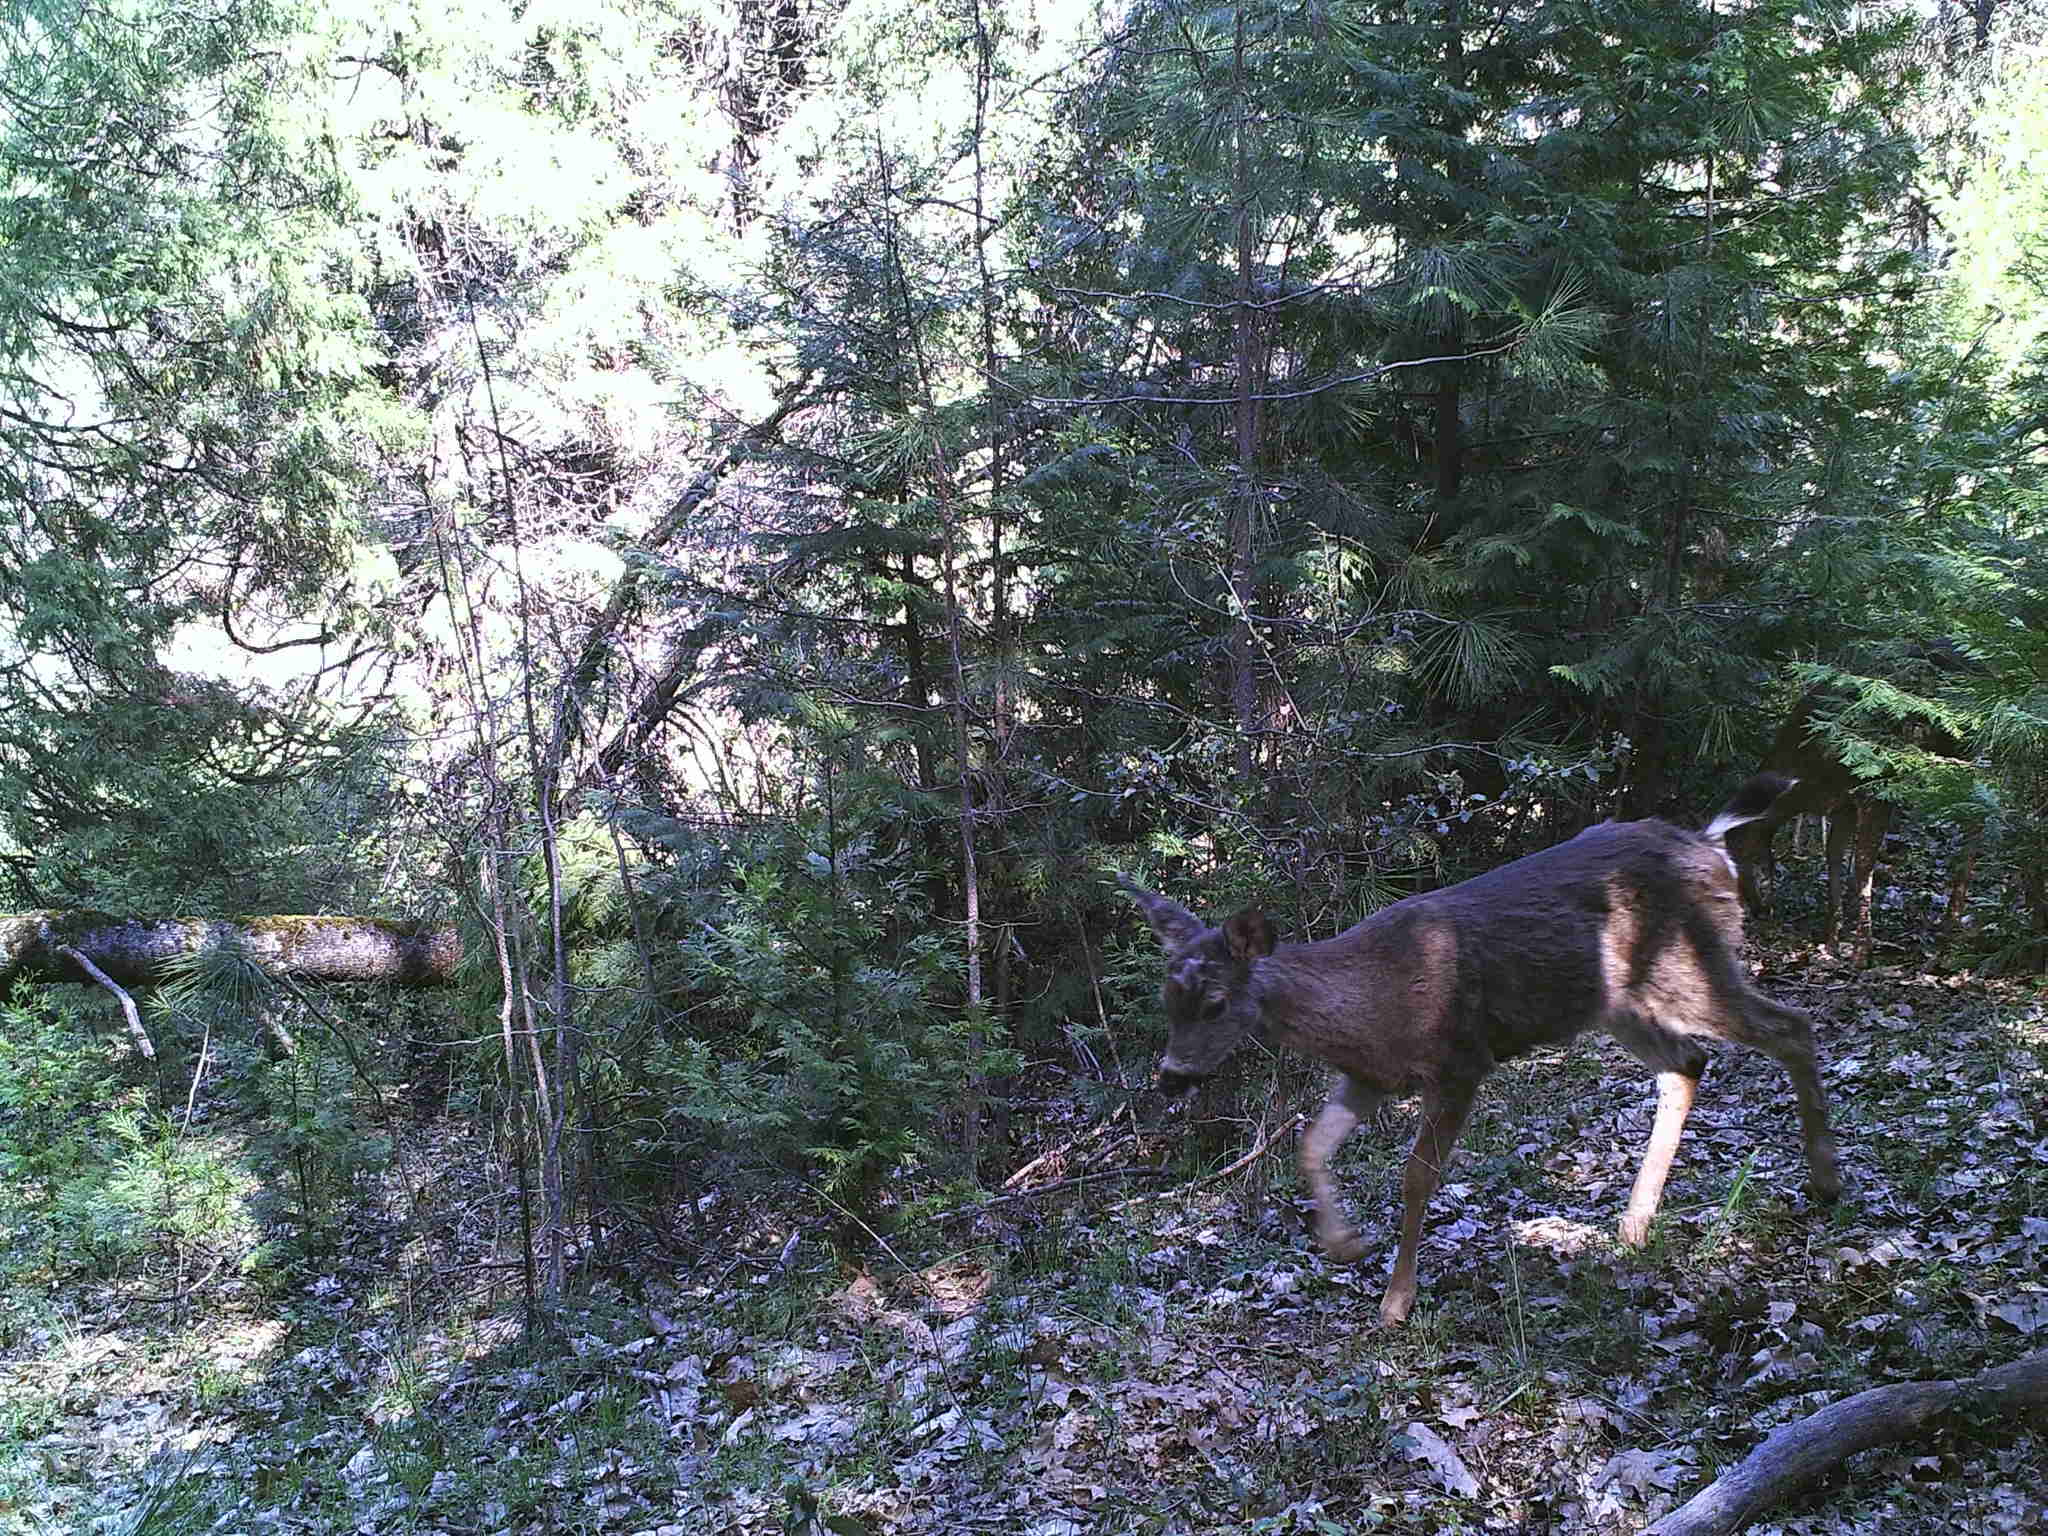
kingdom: Animalia
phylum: Chordata
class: Mammalia
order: Artiodactyla
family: Cervidae
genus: Odocoileus
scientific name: Odocoileus hemionus
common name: Mule deer
